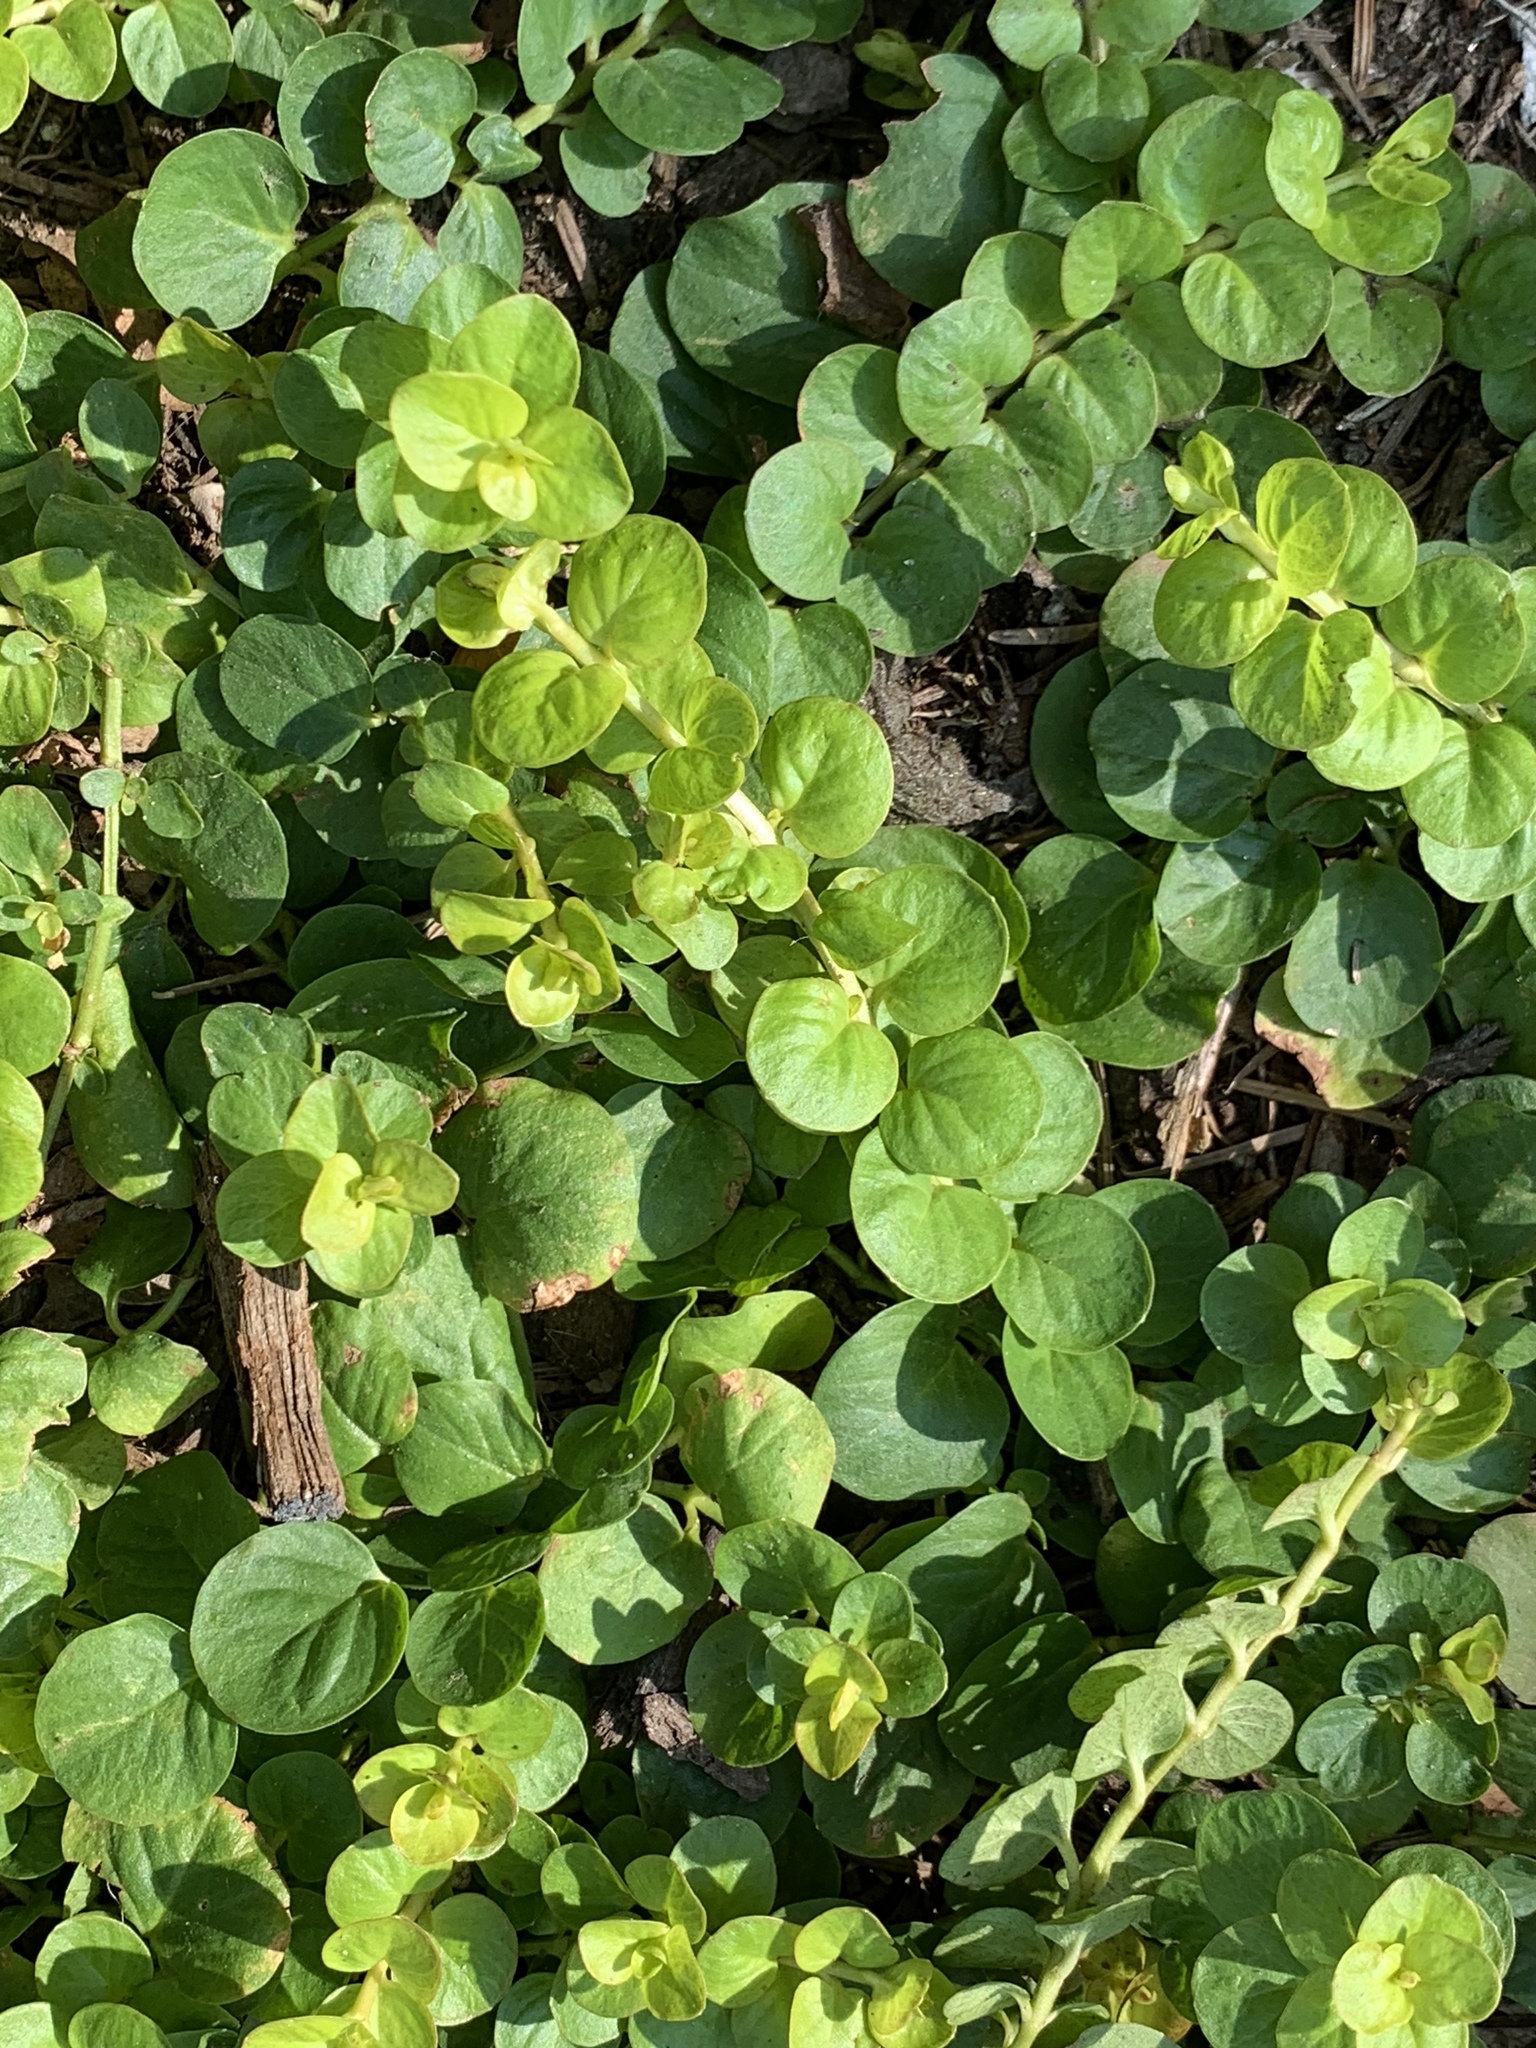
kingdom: Plantae
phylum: Tracheophyta
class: Magnoliopsida
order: Ericales
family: Primulaceae
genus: Lysimachia
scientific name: Lysimachia nummularia
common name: Moneywort
